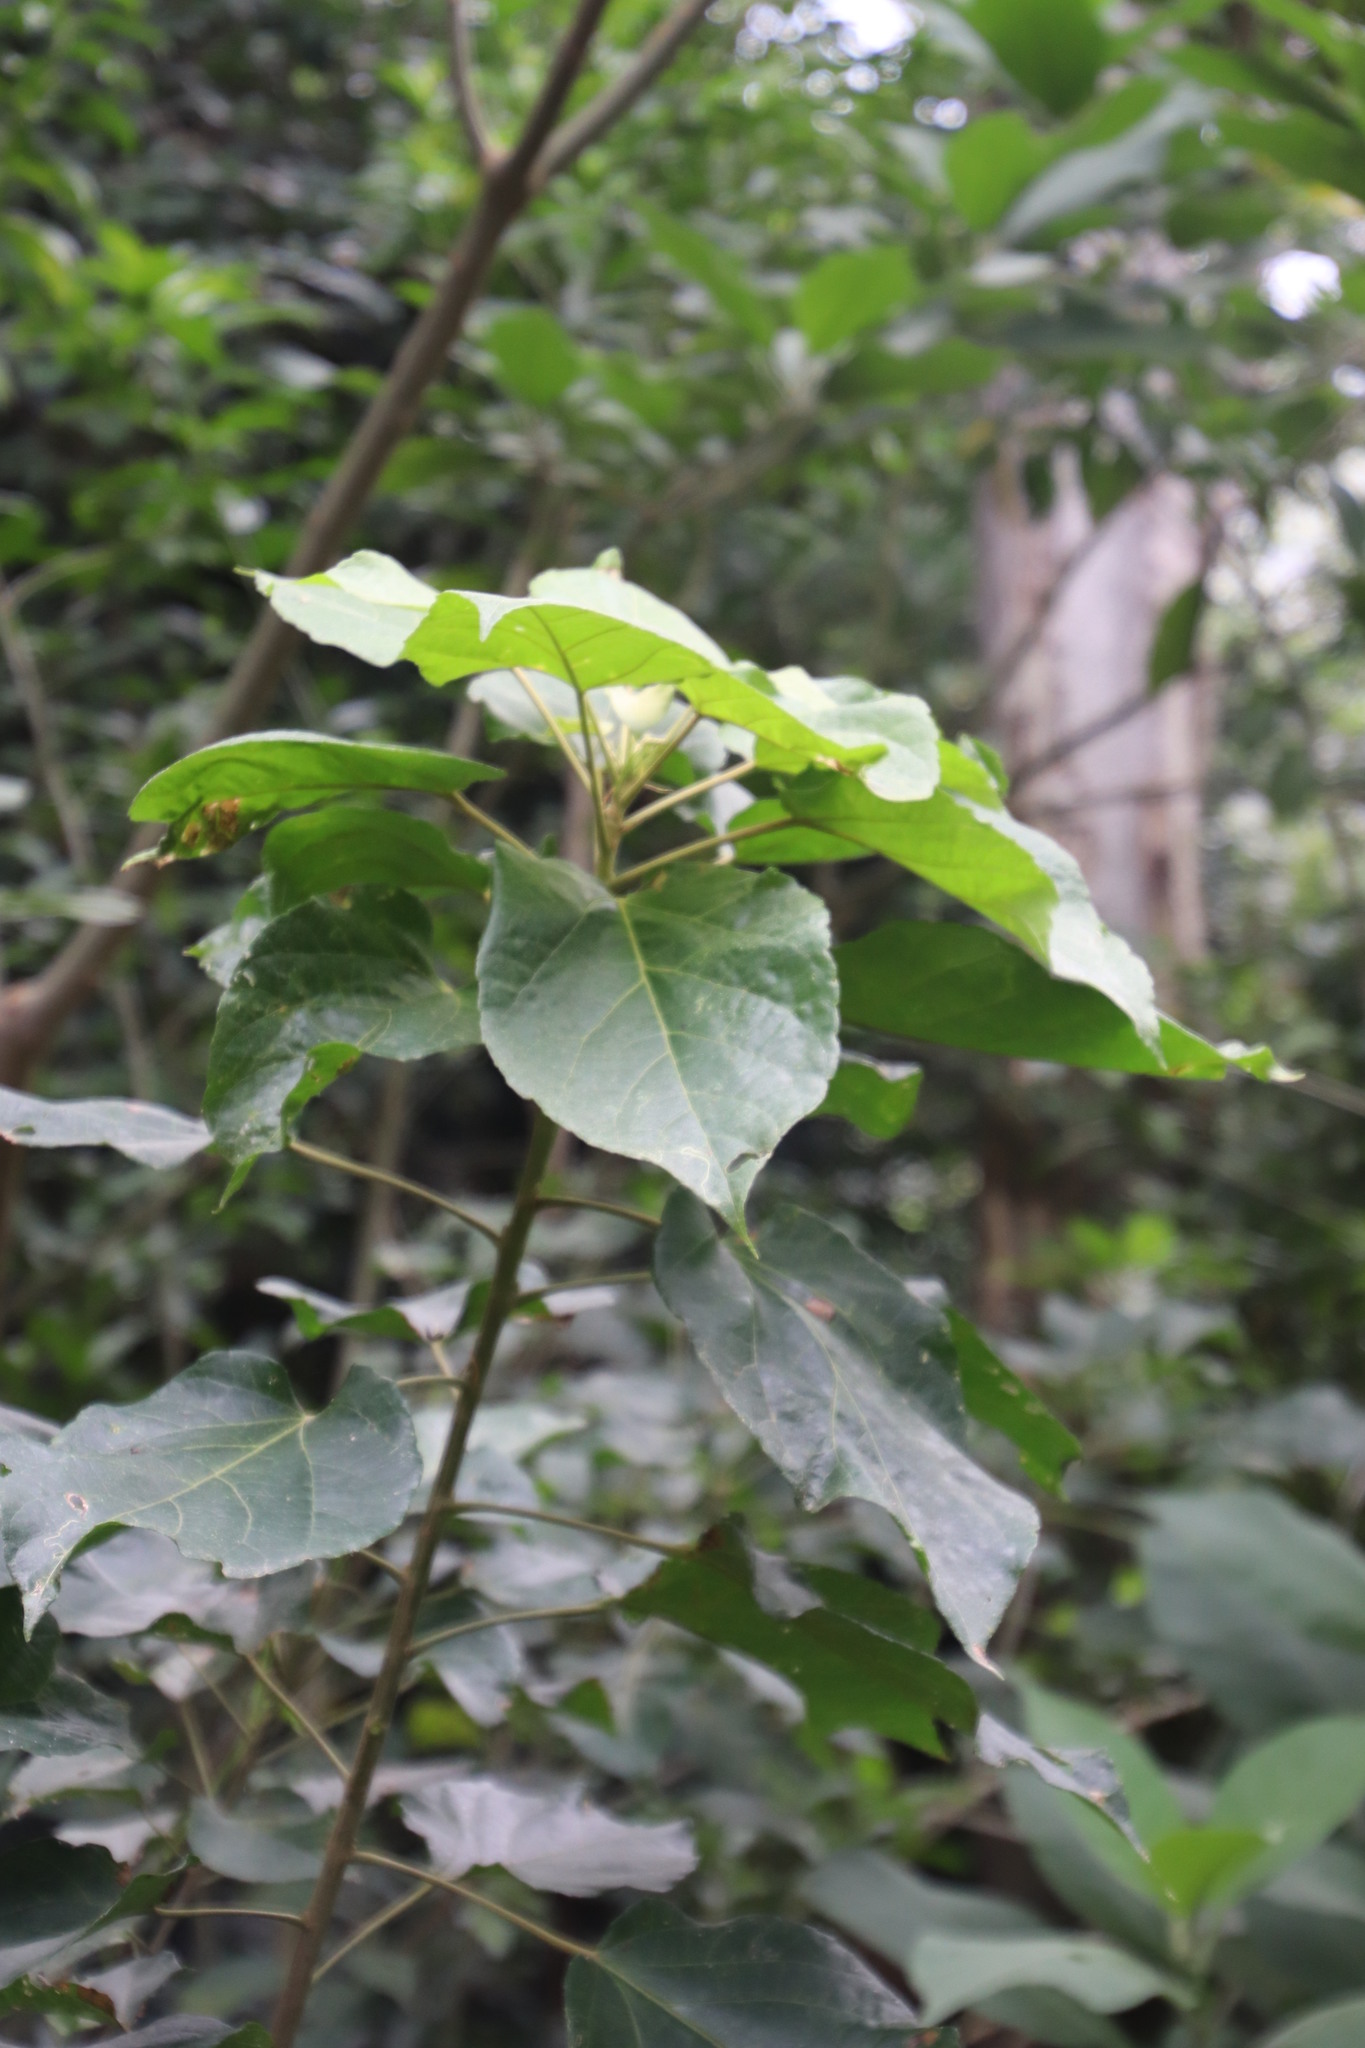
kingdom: Plantae
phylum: Tracheophyta
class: Magnoliopsida
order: Malpighiales
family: Euphorbiaceae
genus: Croton
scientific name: Croton sylvaticus
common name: Forest croton
